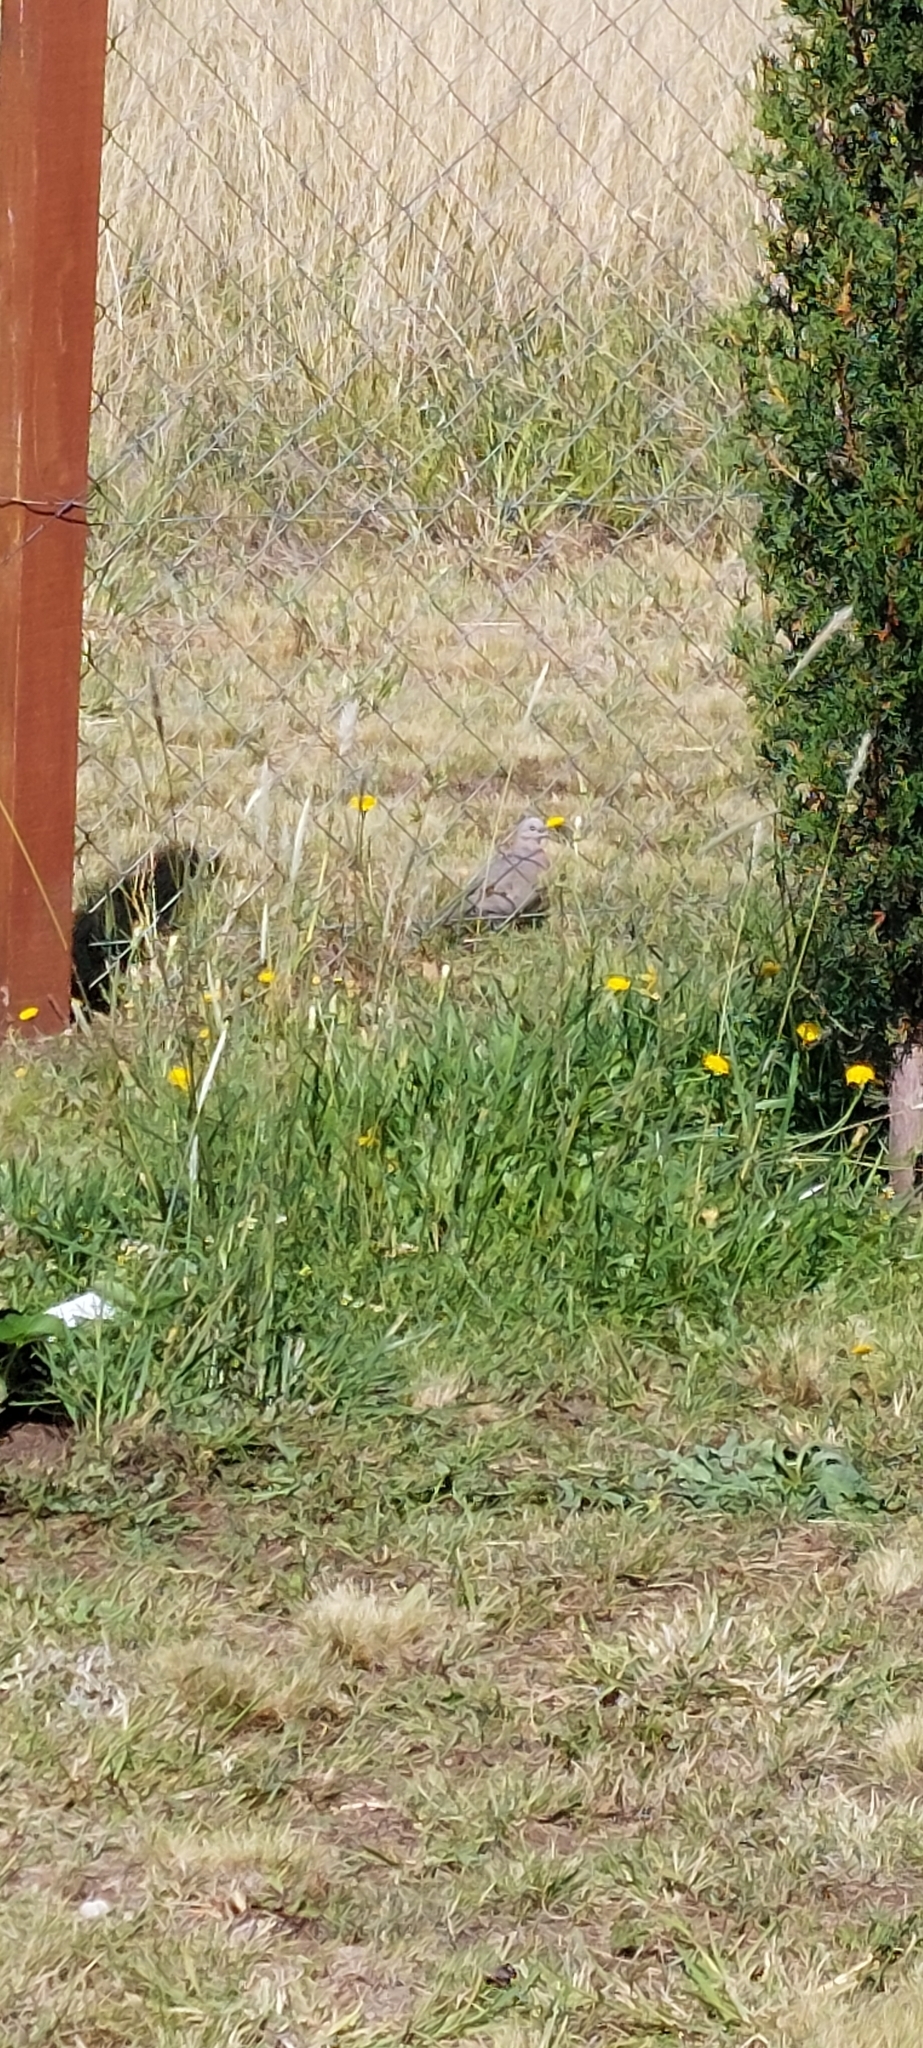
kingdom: Animalia
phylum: Chordata
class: Aves
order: Columbiformes
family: Columbidae
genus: Zenaida
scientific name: Zenaida auriculata
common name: Eared dove
